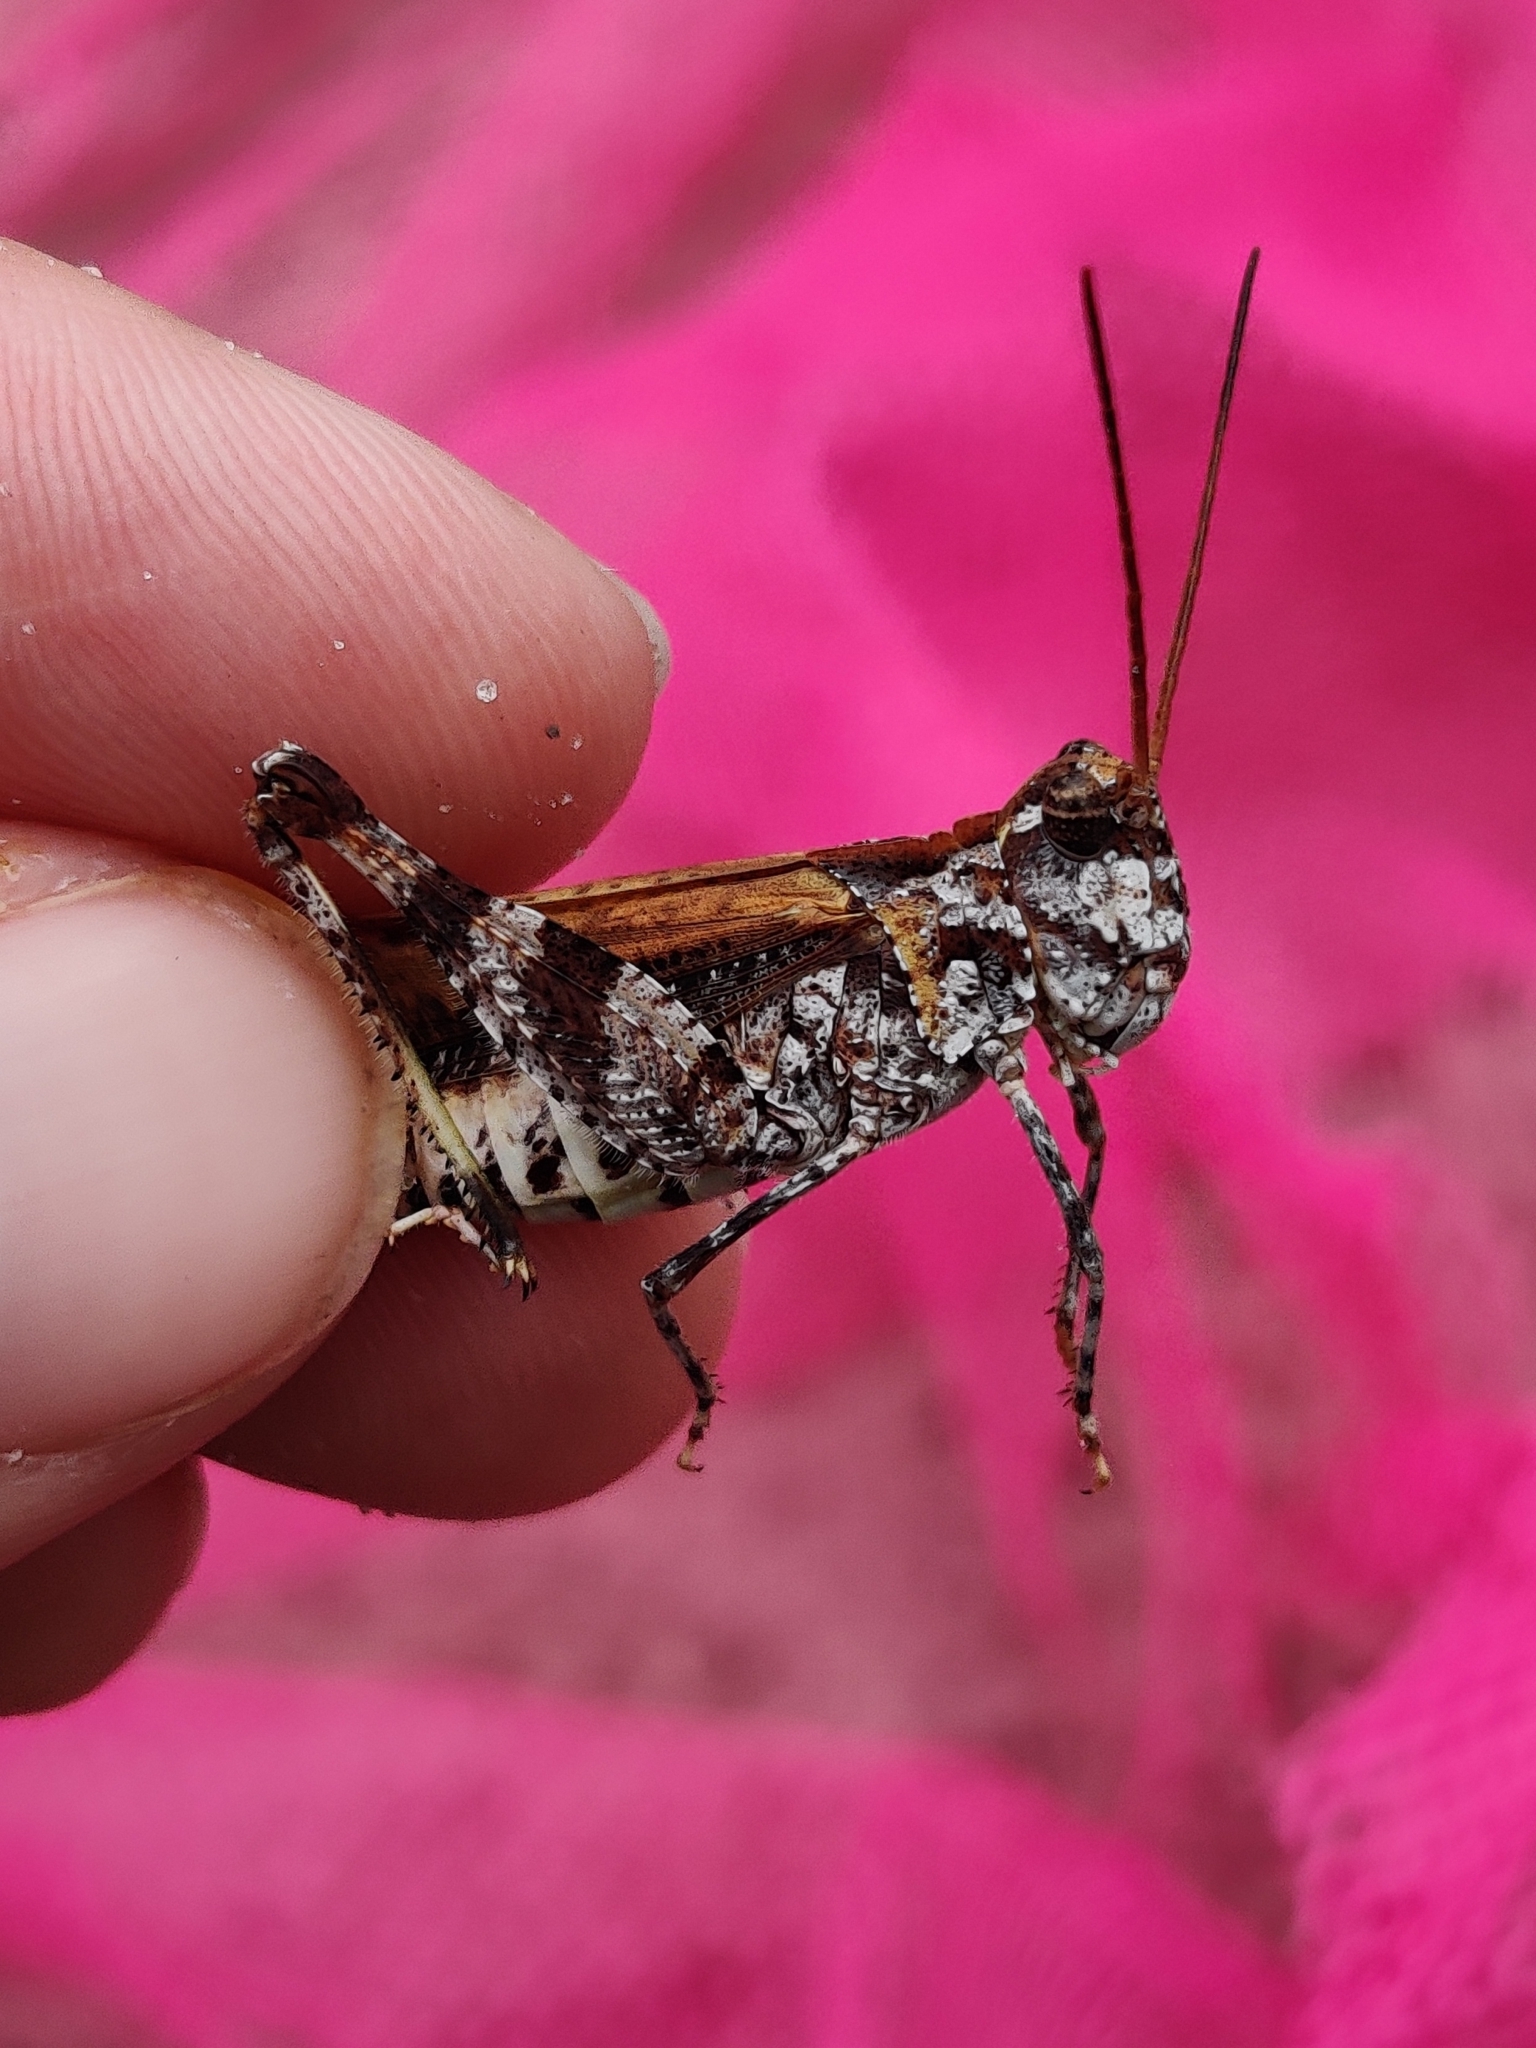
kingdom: Animalia
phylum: Arthropoda
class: Insecta
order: Orthoptera
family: Acrididae
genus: Psinidia
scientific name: Psinidia fenestralis
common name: Long-horned locust
